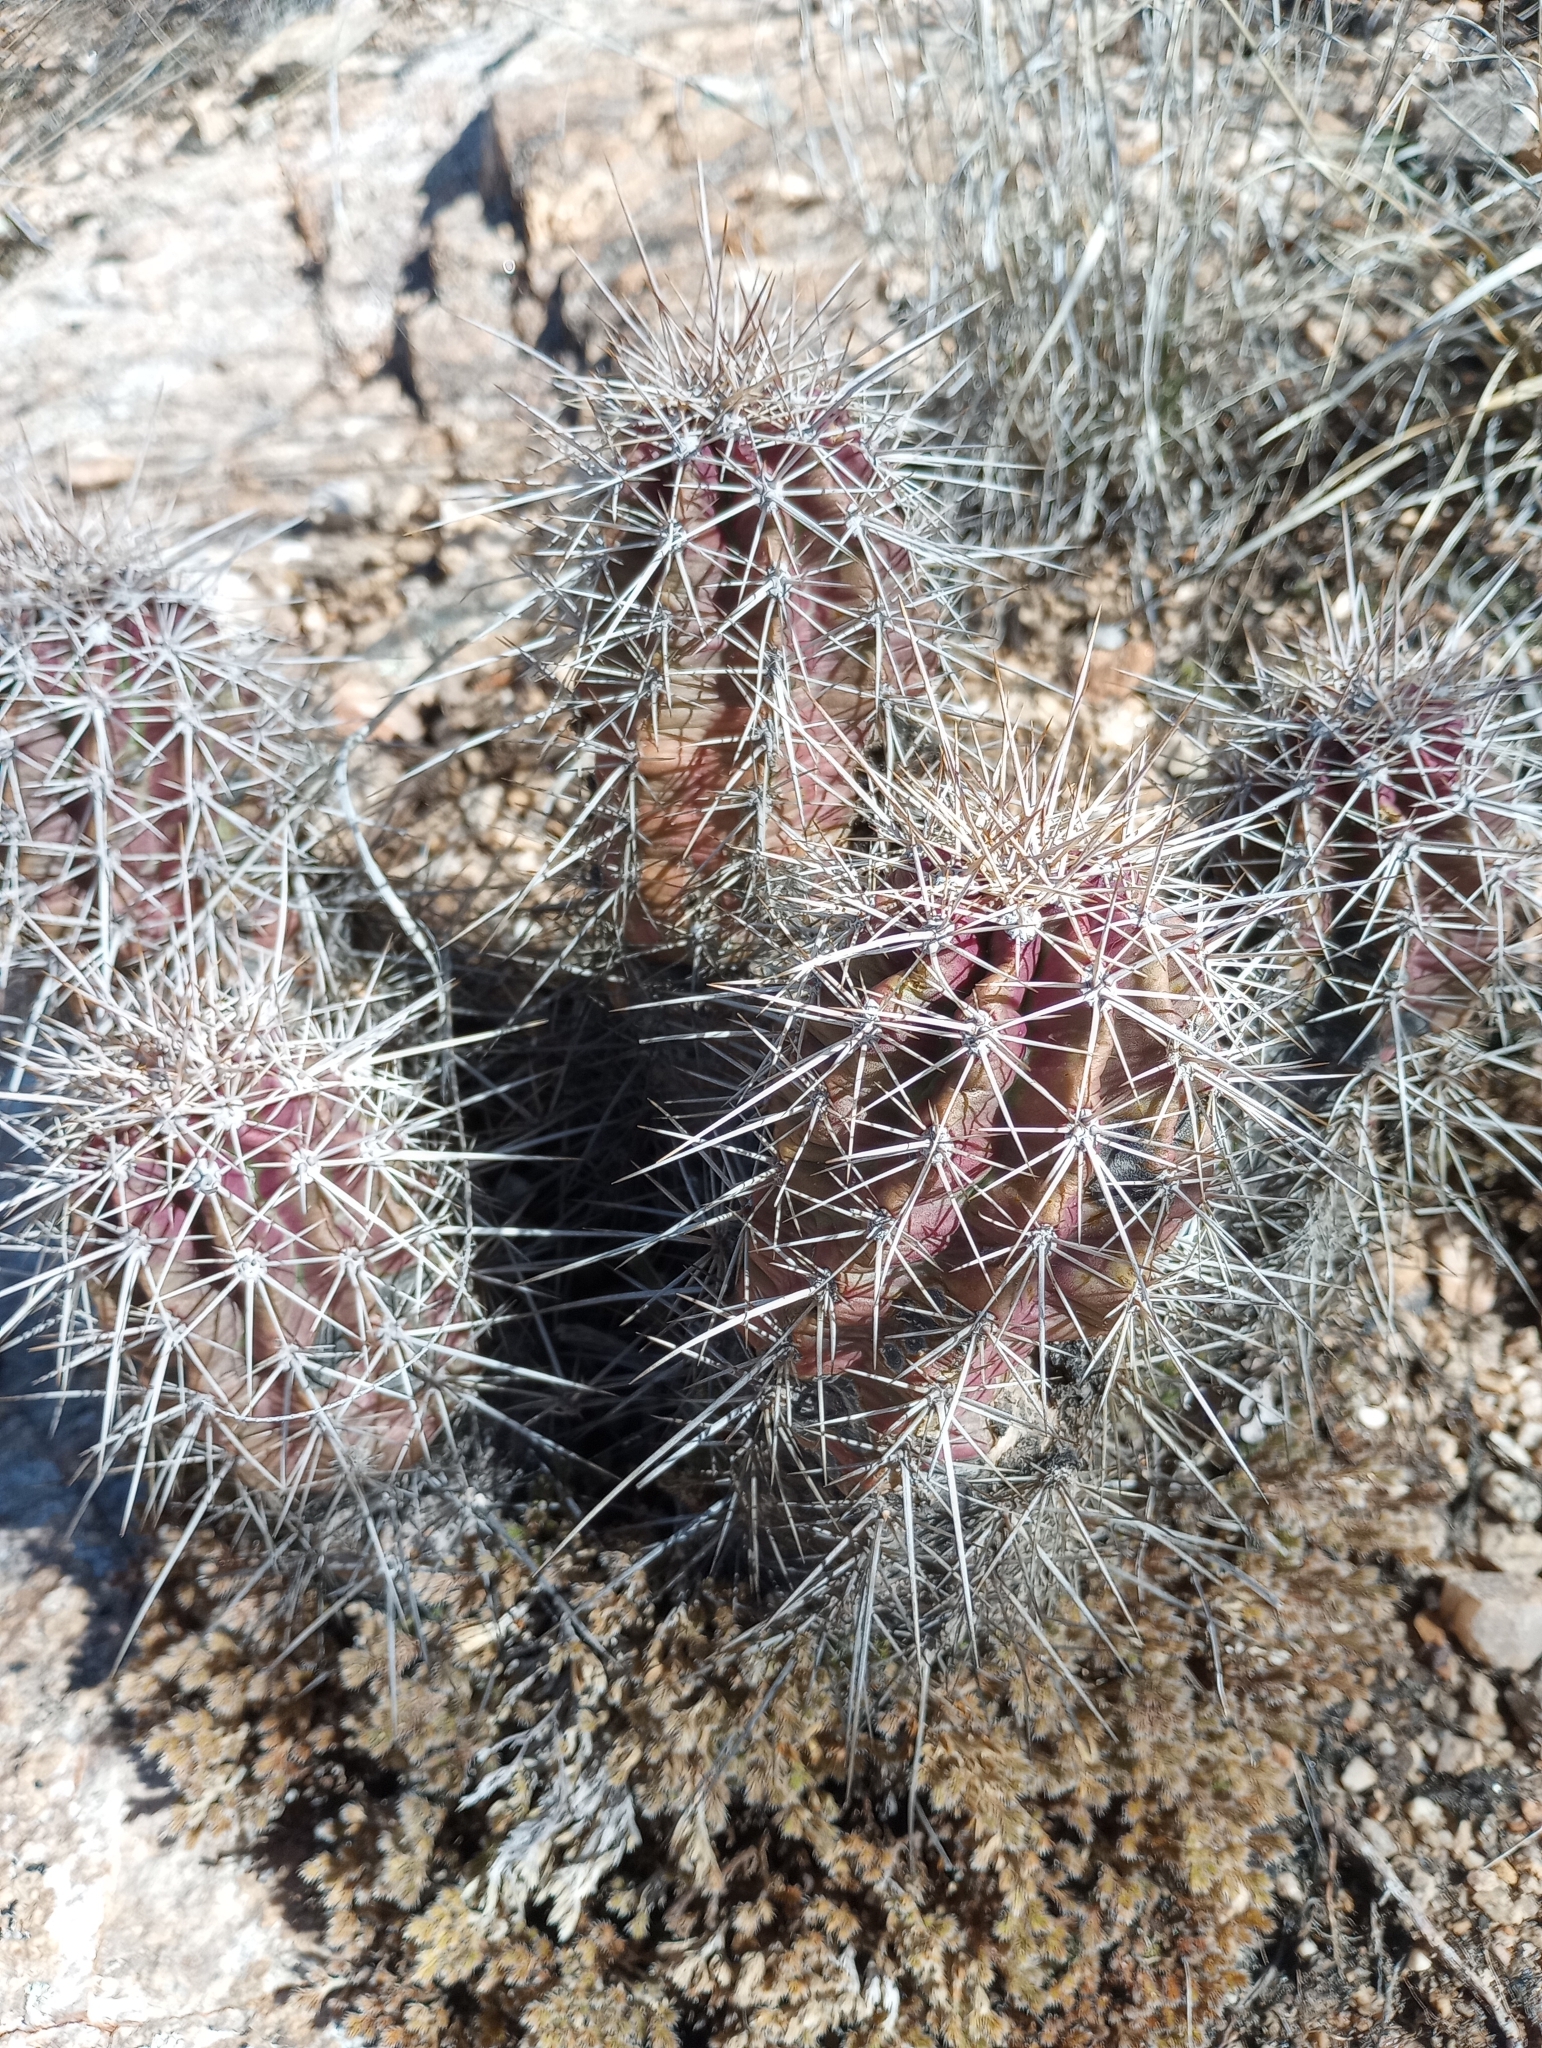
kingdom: Plantae
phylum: Tracheophyta
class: Magnoliopsida
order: Caryophyllales
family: Cactaceae
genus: Echinocereus
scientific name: Echinocereus fasciculatus
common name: Bundle hedgehog
